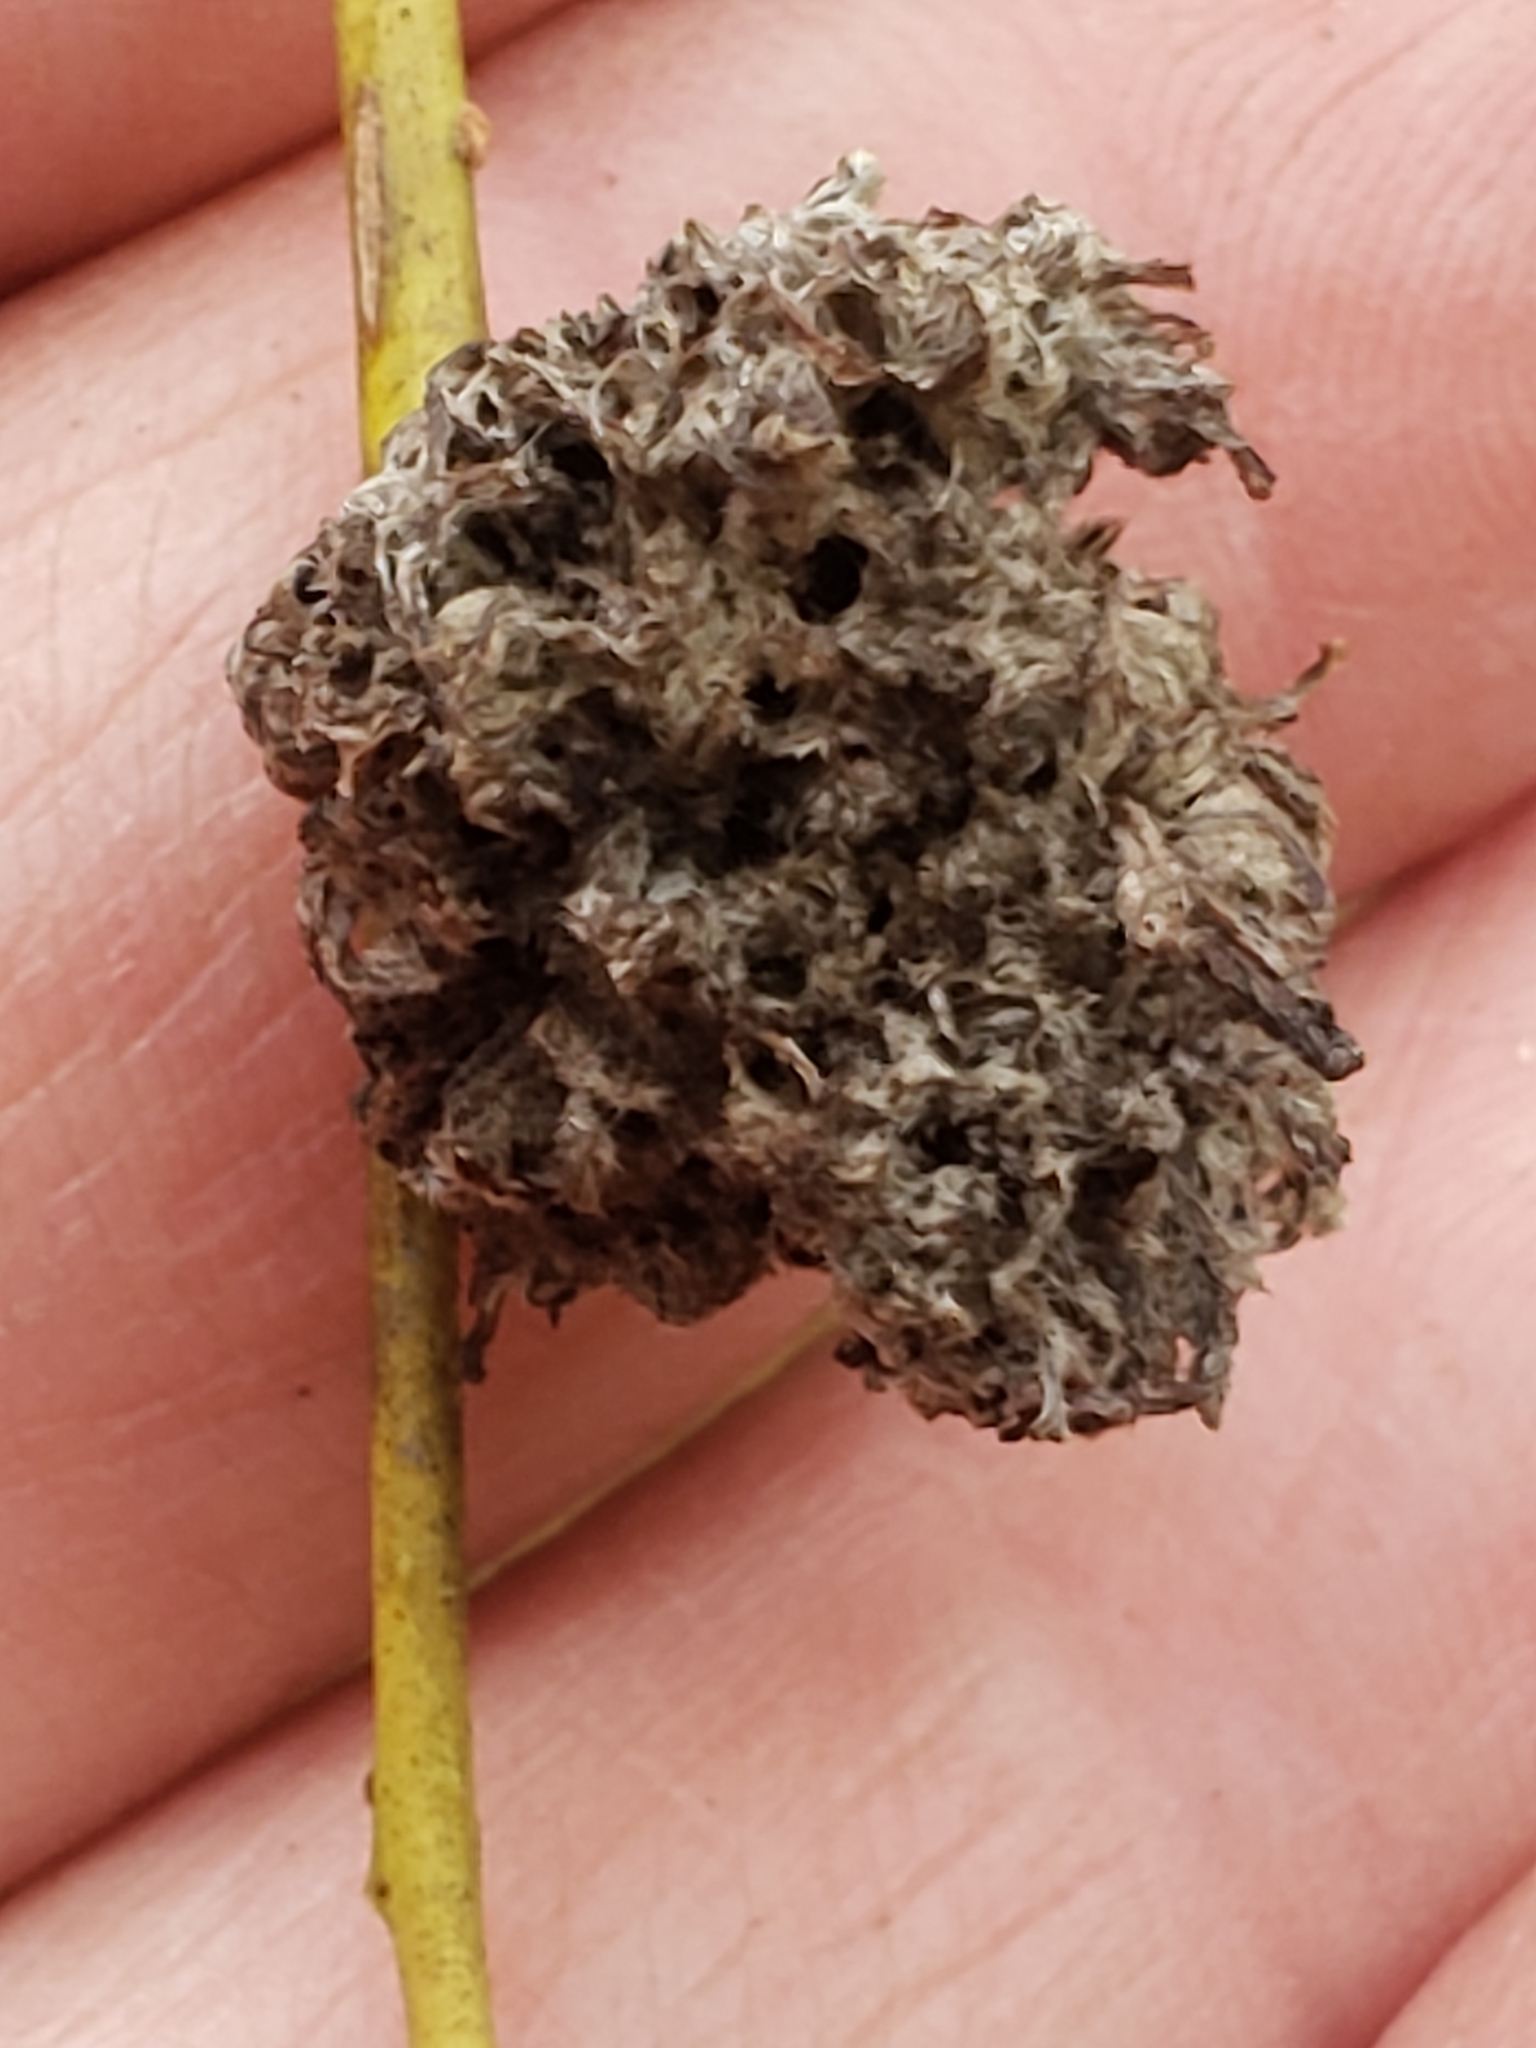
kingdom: Animalia
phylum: Arthropoda
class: Arachnida
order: Trombidiformes
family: Eriophyidae
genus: Aculops
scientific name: Aculops
